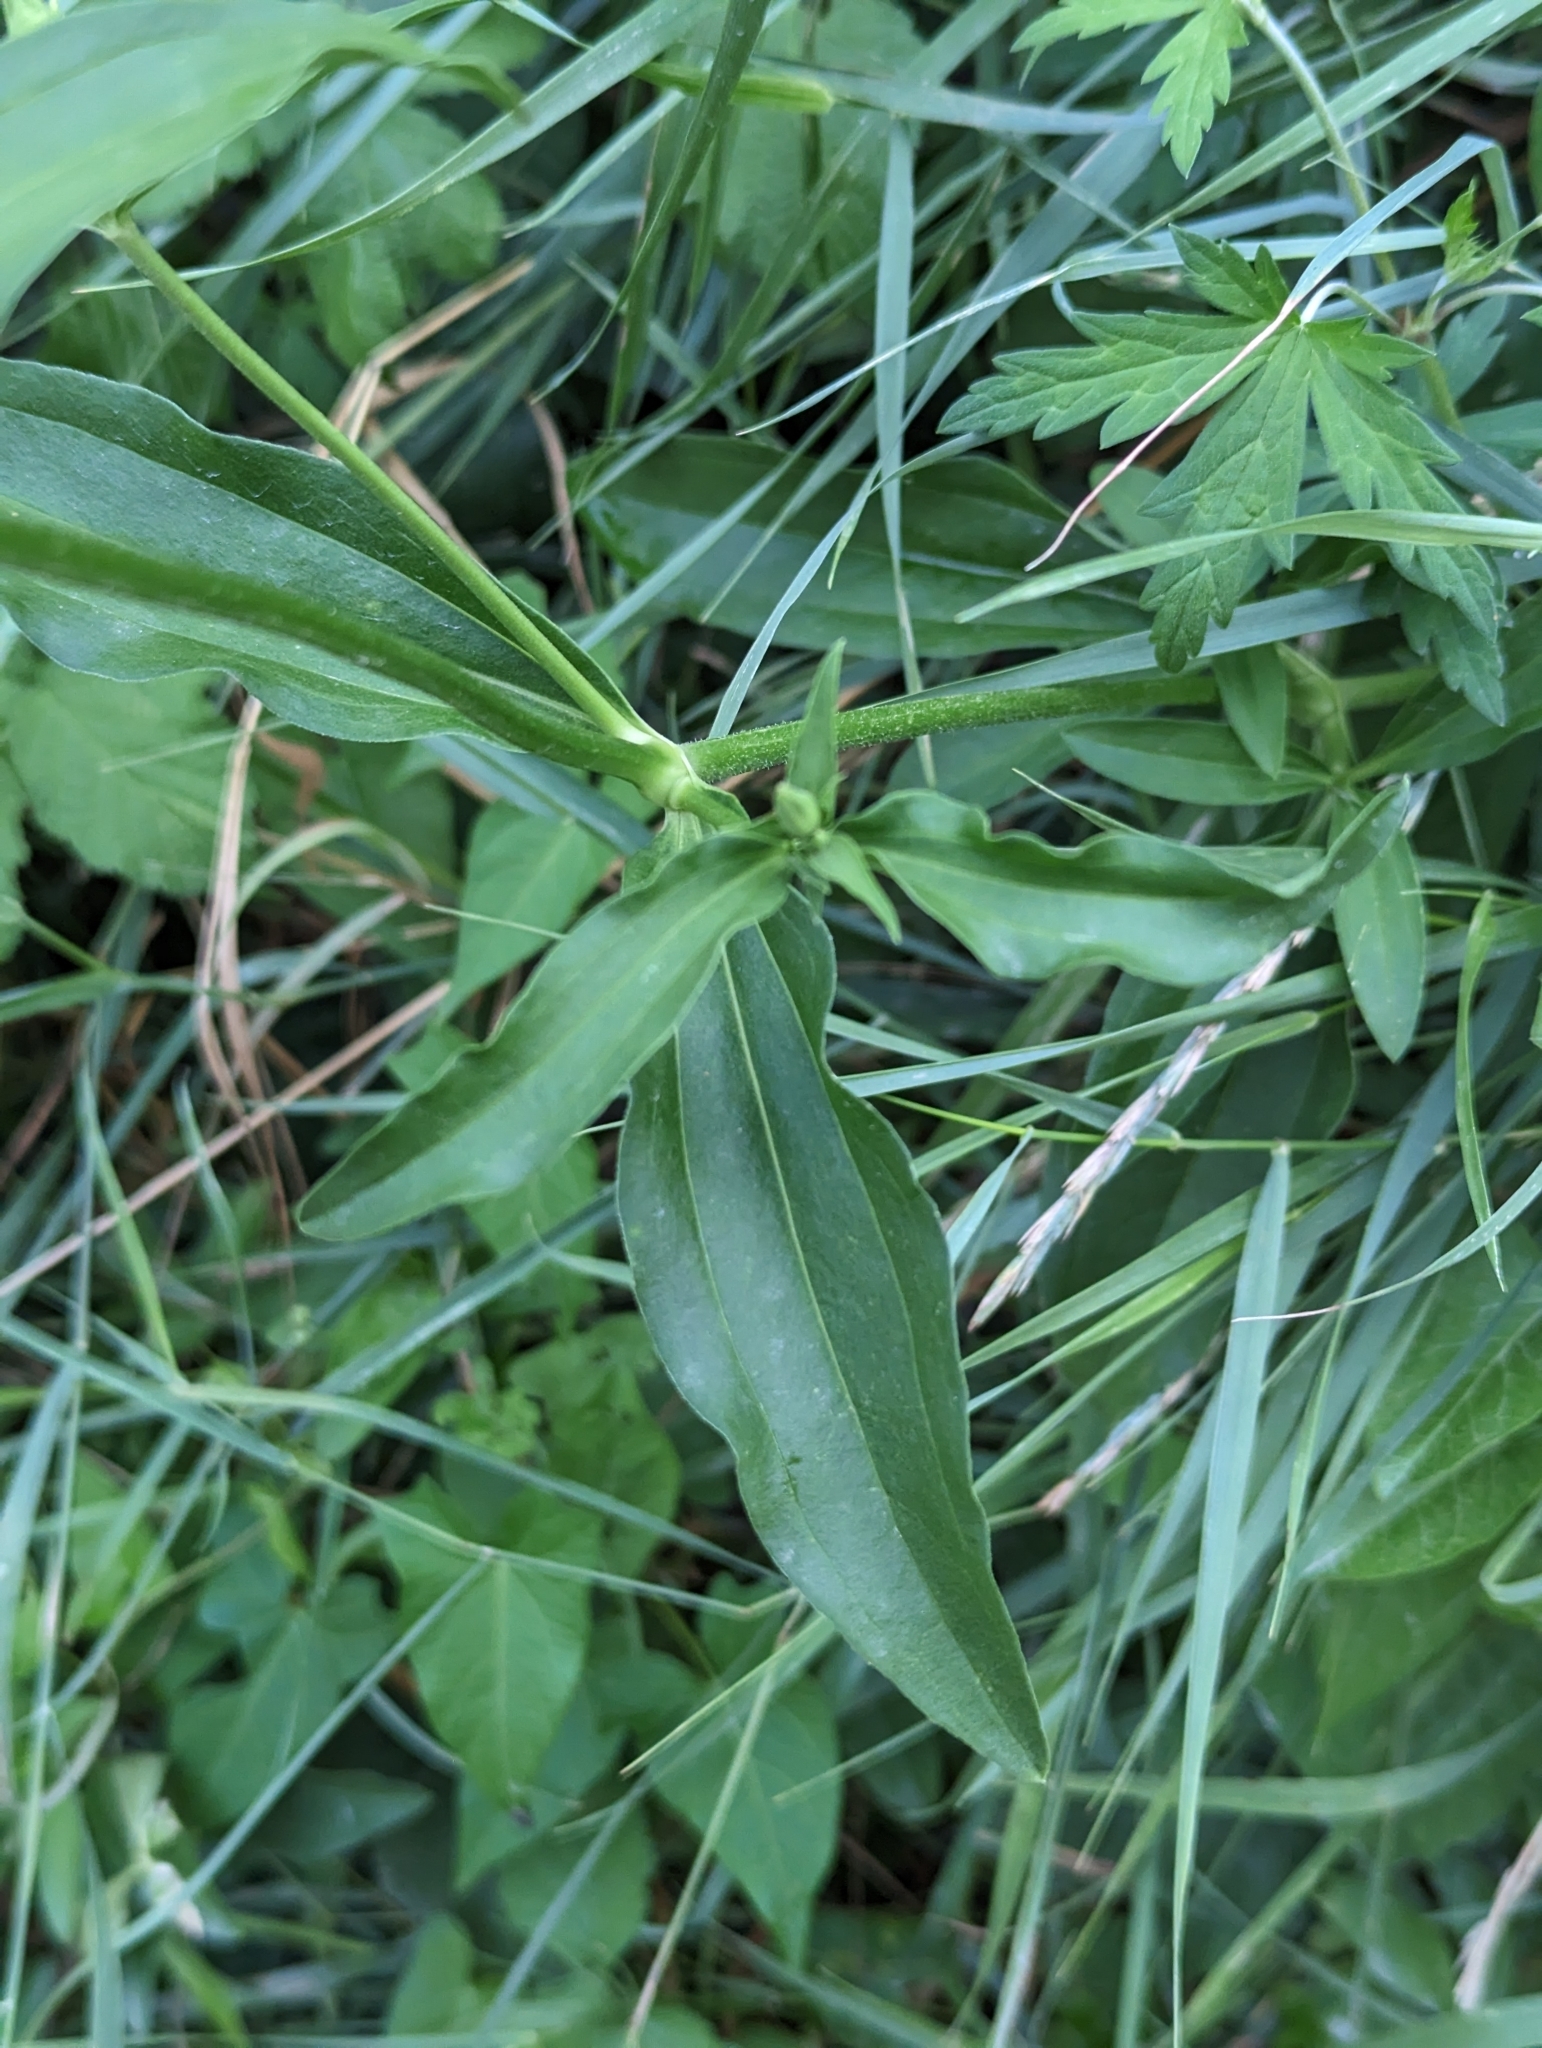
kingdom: Plantae
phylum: Tracheophyta
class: Magnoliopsida
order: Caryophyllales
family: Caryophyllaceae
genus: Saponaria
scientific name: Saponaria officinalis
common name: Soapwort
